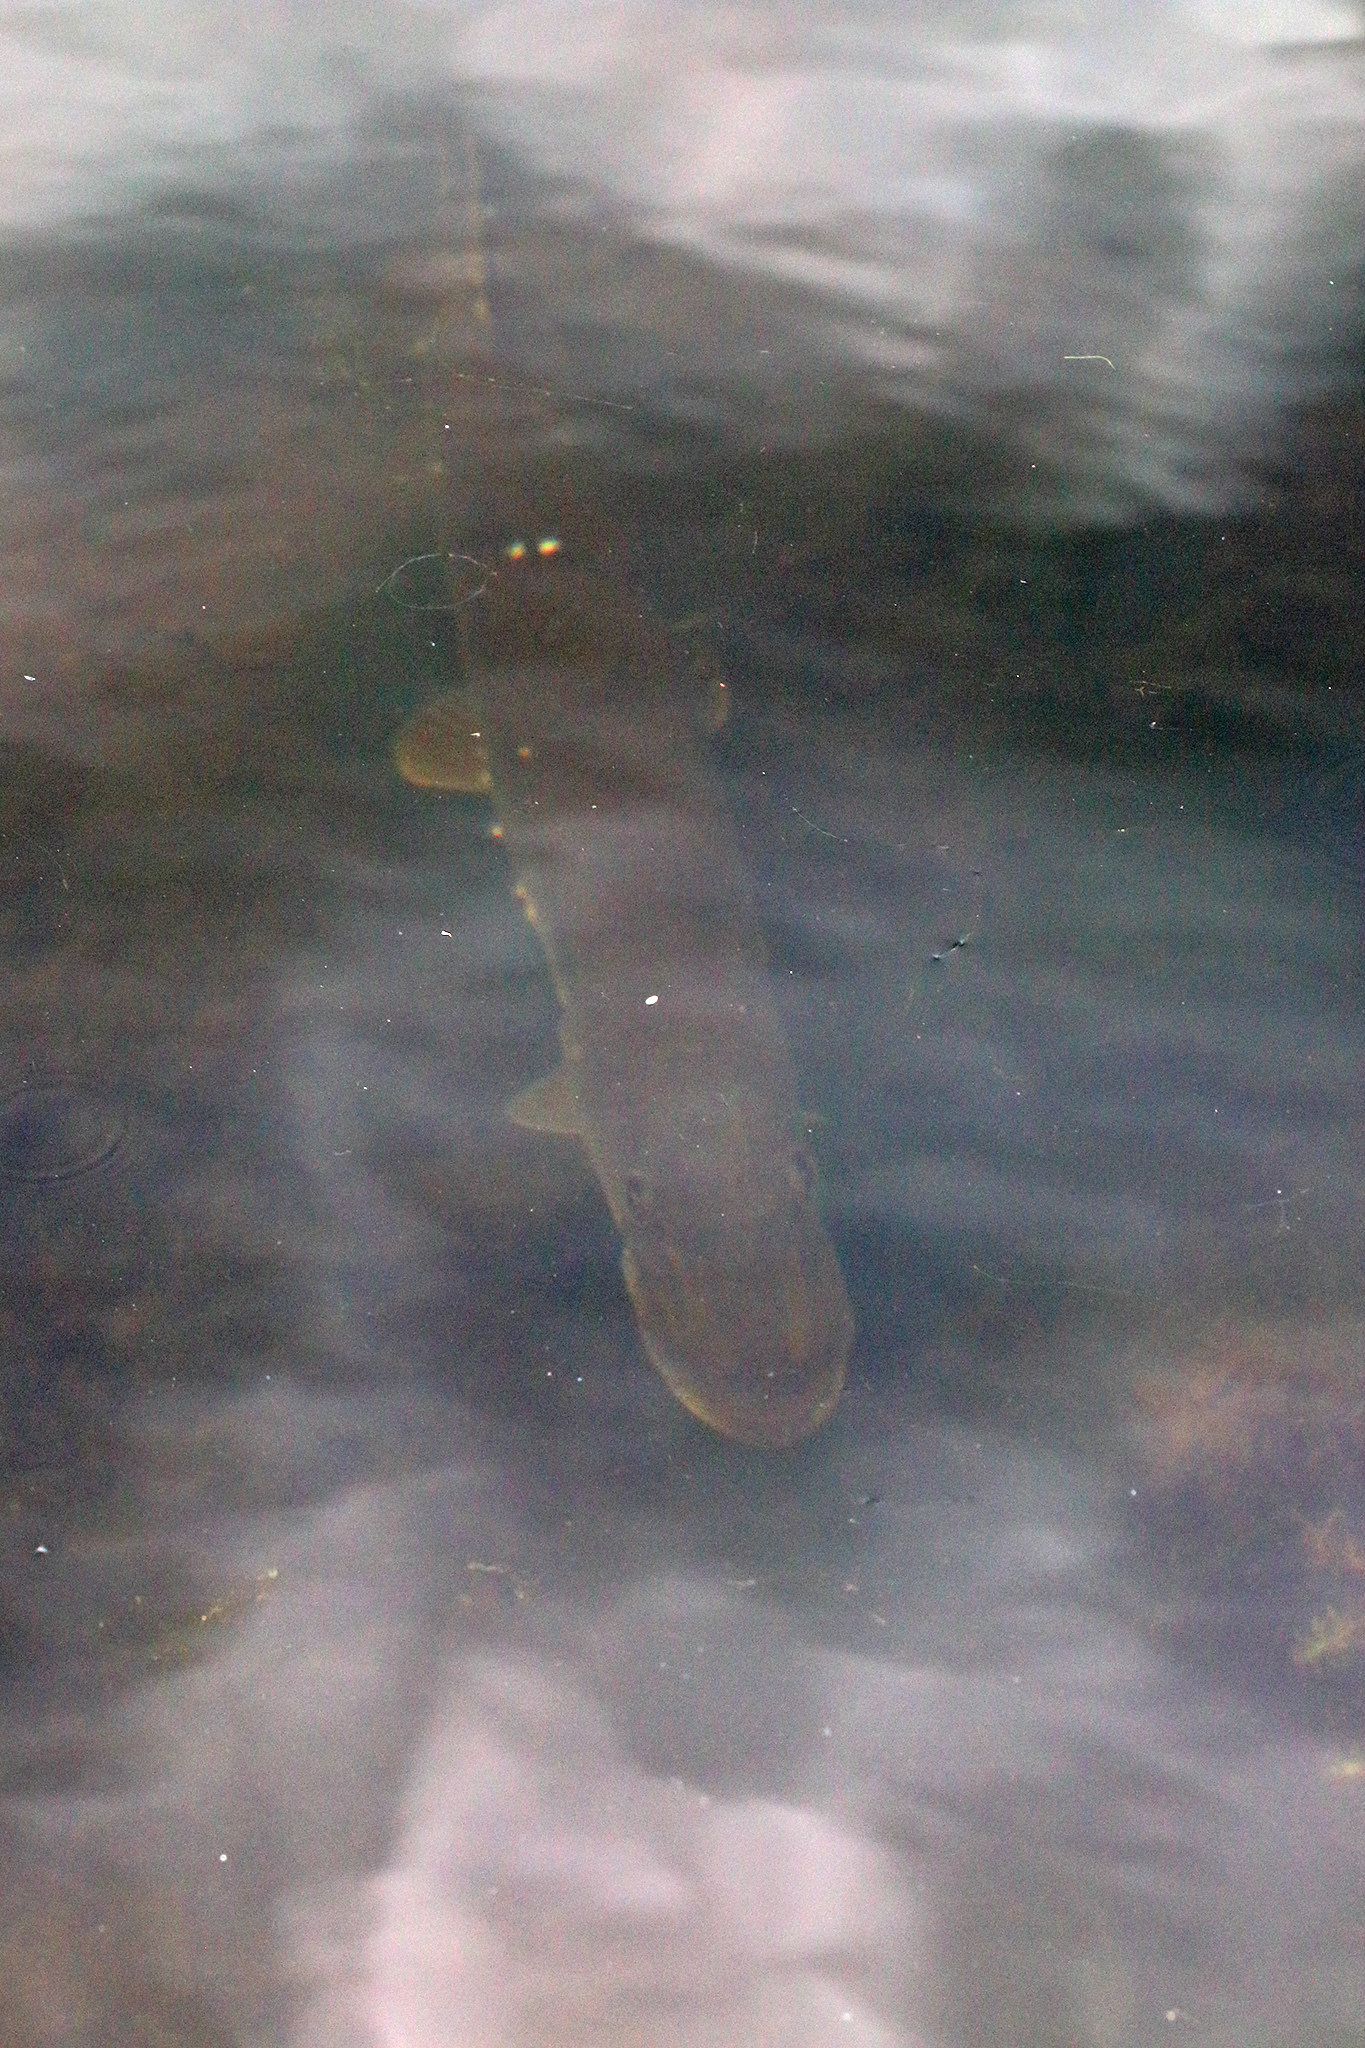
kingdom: Animalia
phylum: Chordata
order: Esociformes
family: Esocidae
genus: Esox
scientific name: Esox lucius
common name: Northern pike
